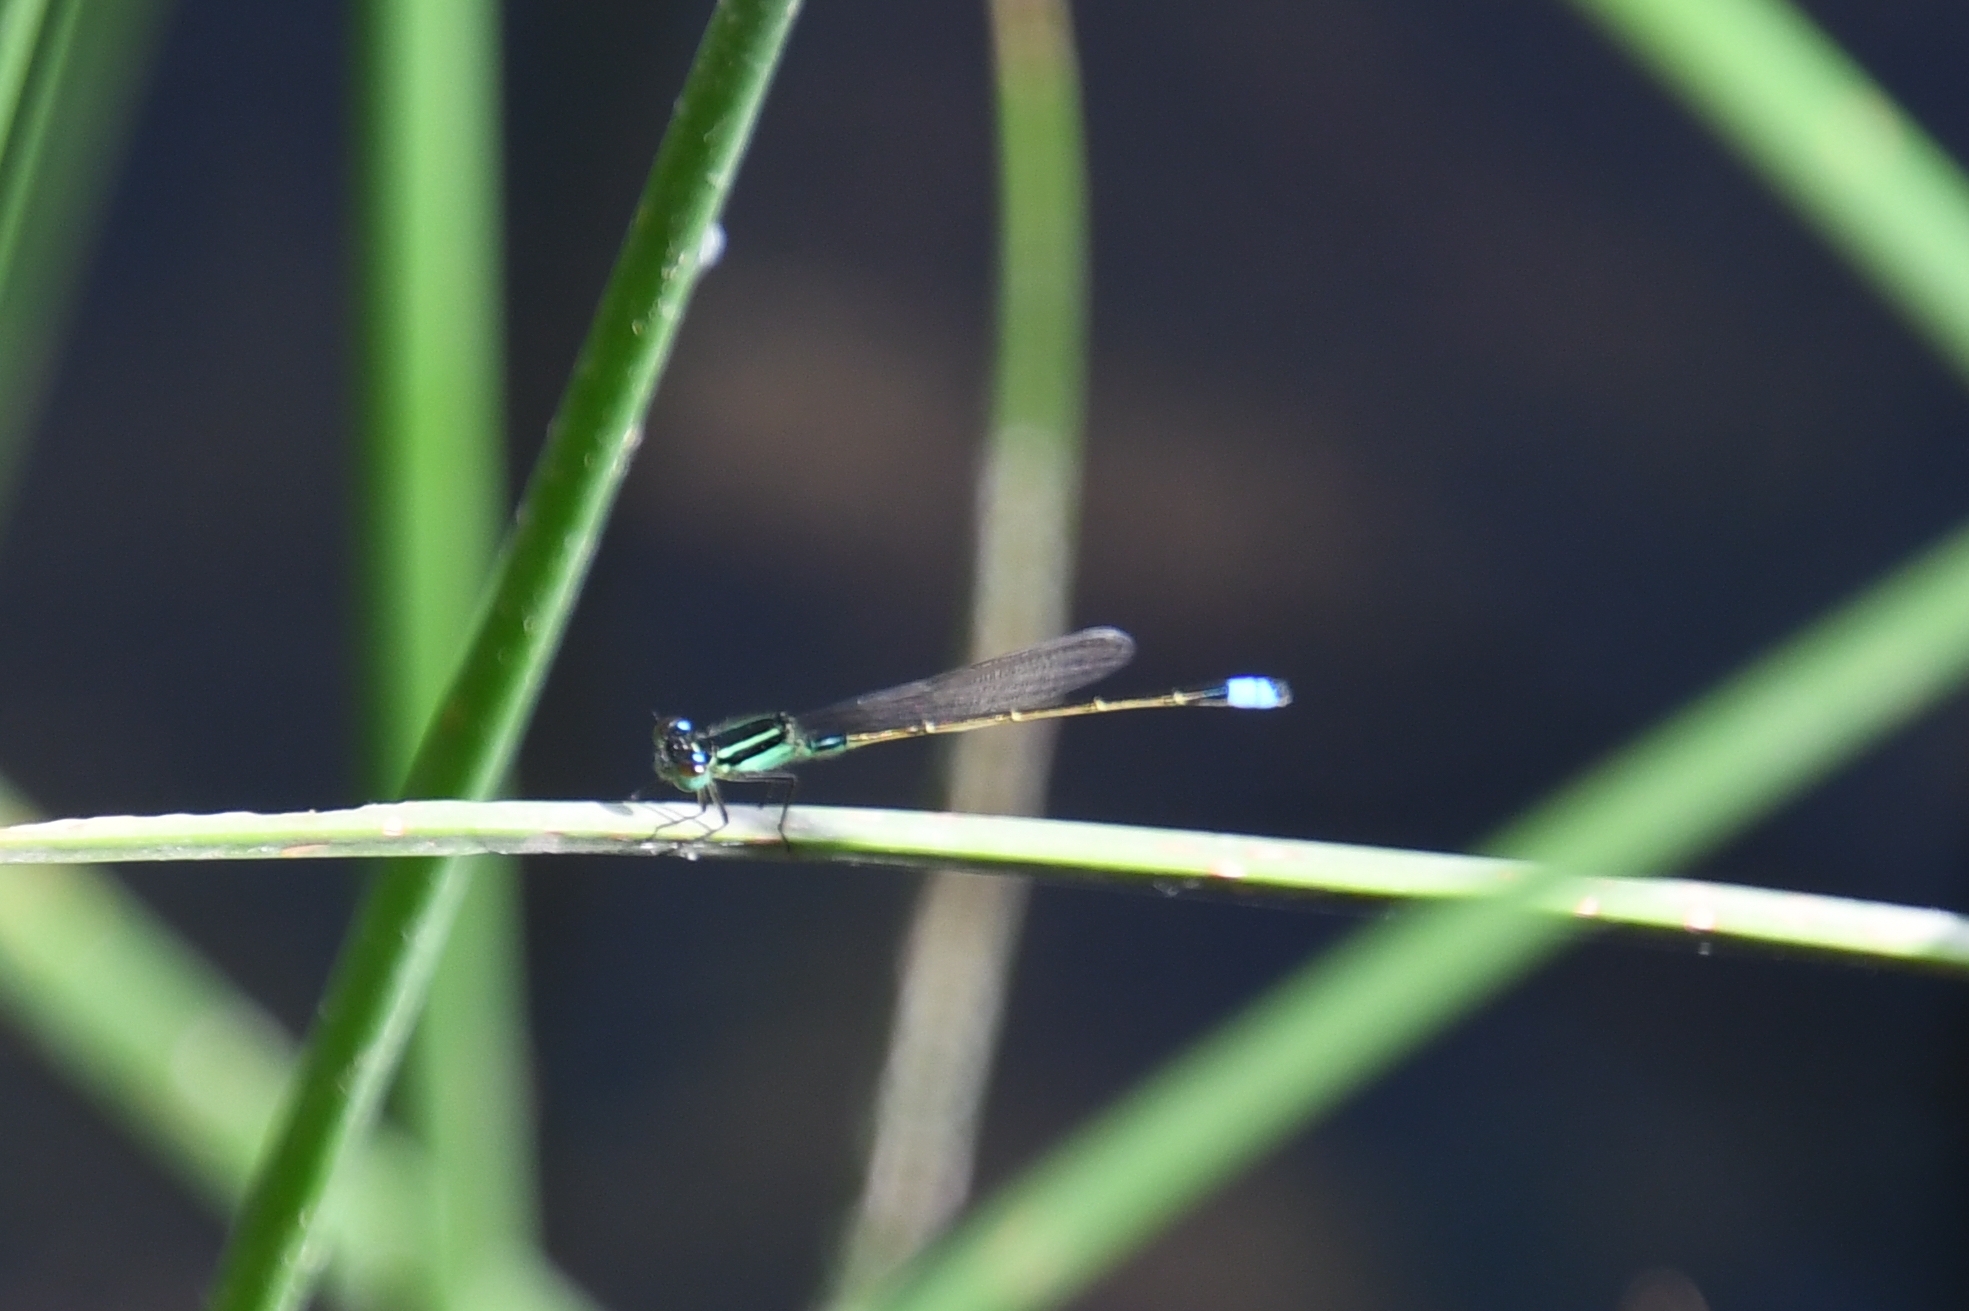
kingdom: Animalia
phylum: Arthropoda
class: Insecta
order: Odonata
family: Coenagrionidae
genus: Ischnura
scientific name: Ischnura ramburii
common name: Rambur's forktail
